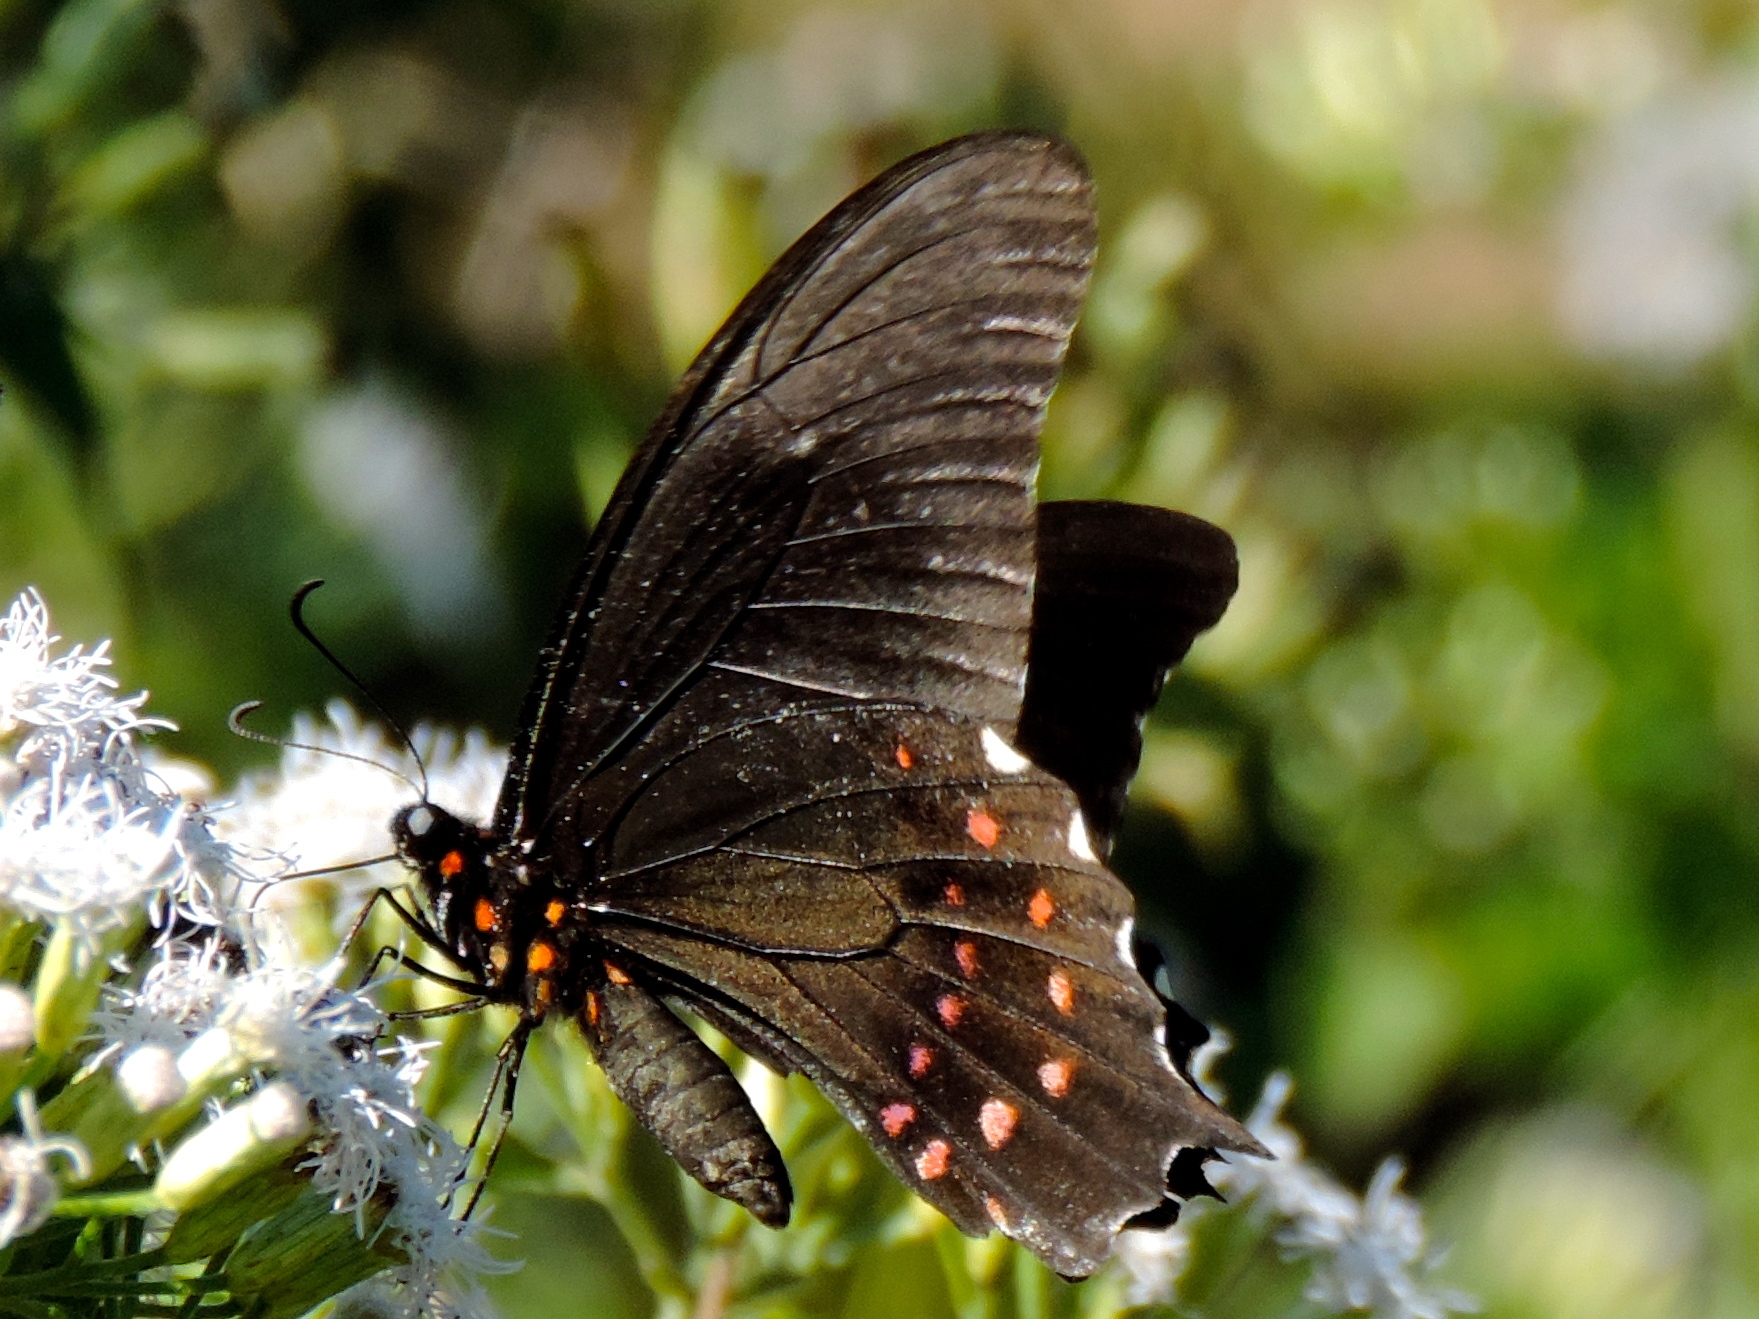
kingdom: Animalia
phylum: Arthropoda
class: Insecta
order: Lepidoptera
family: Papilionidae
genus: Heraclides
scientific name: Heraclides rogeri
